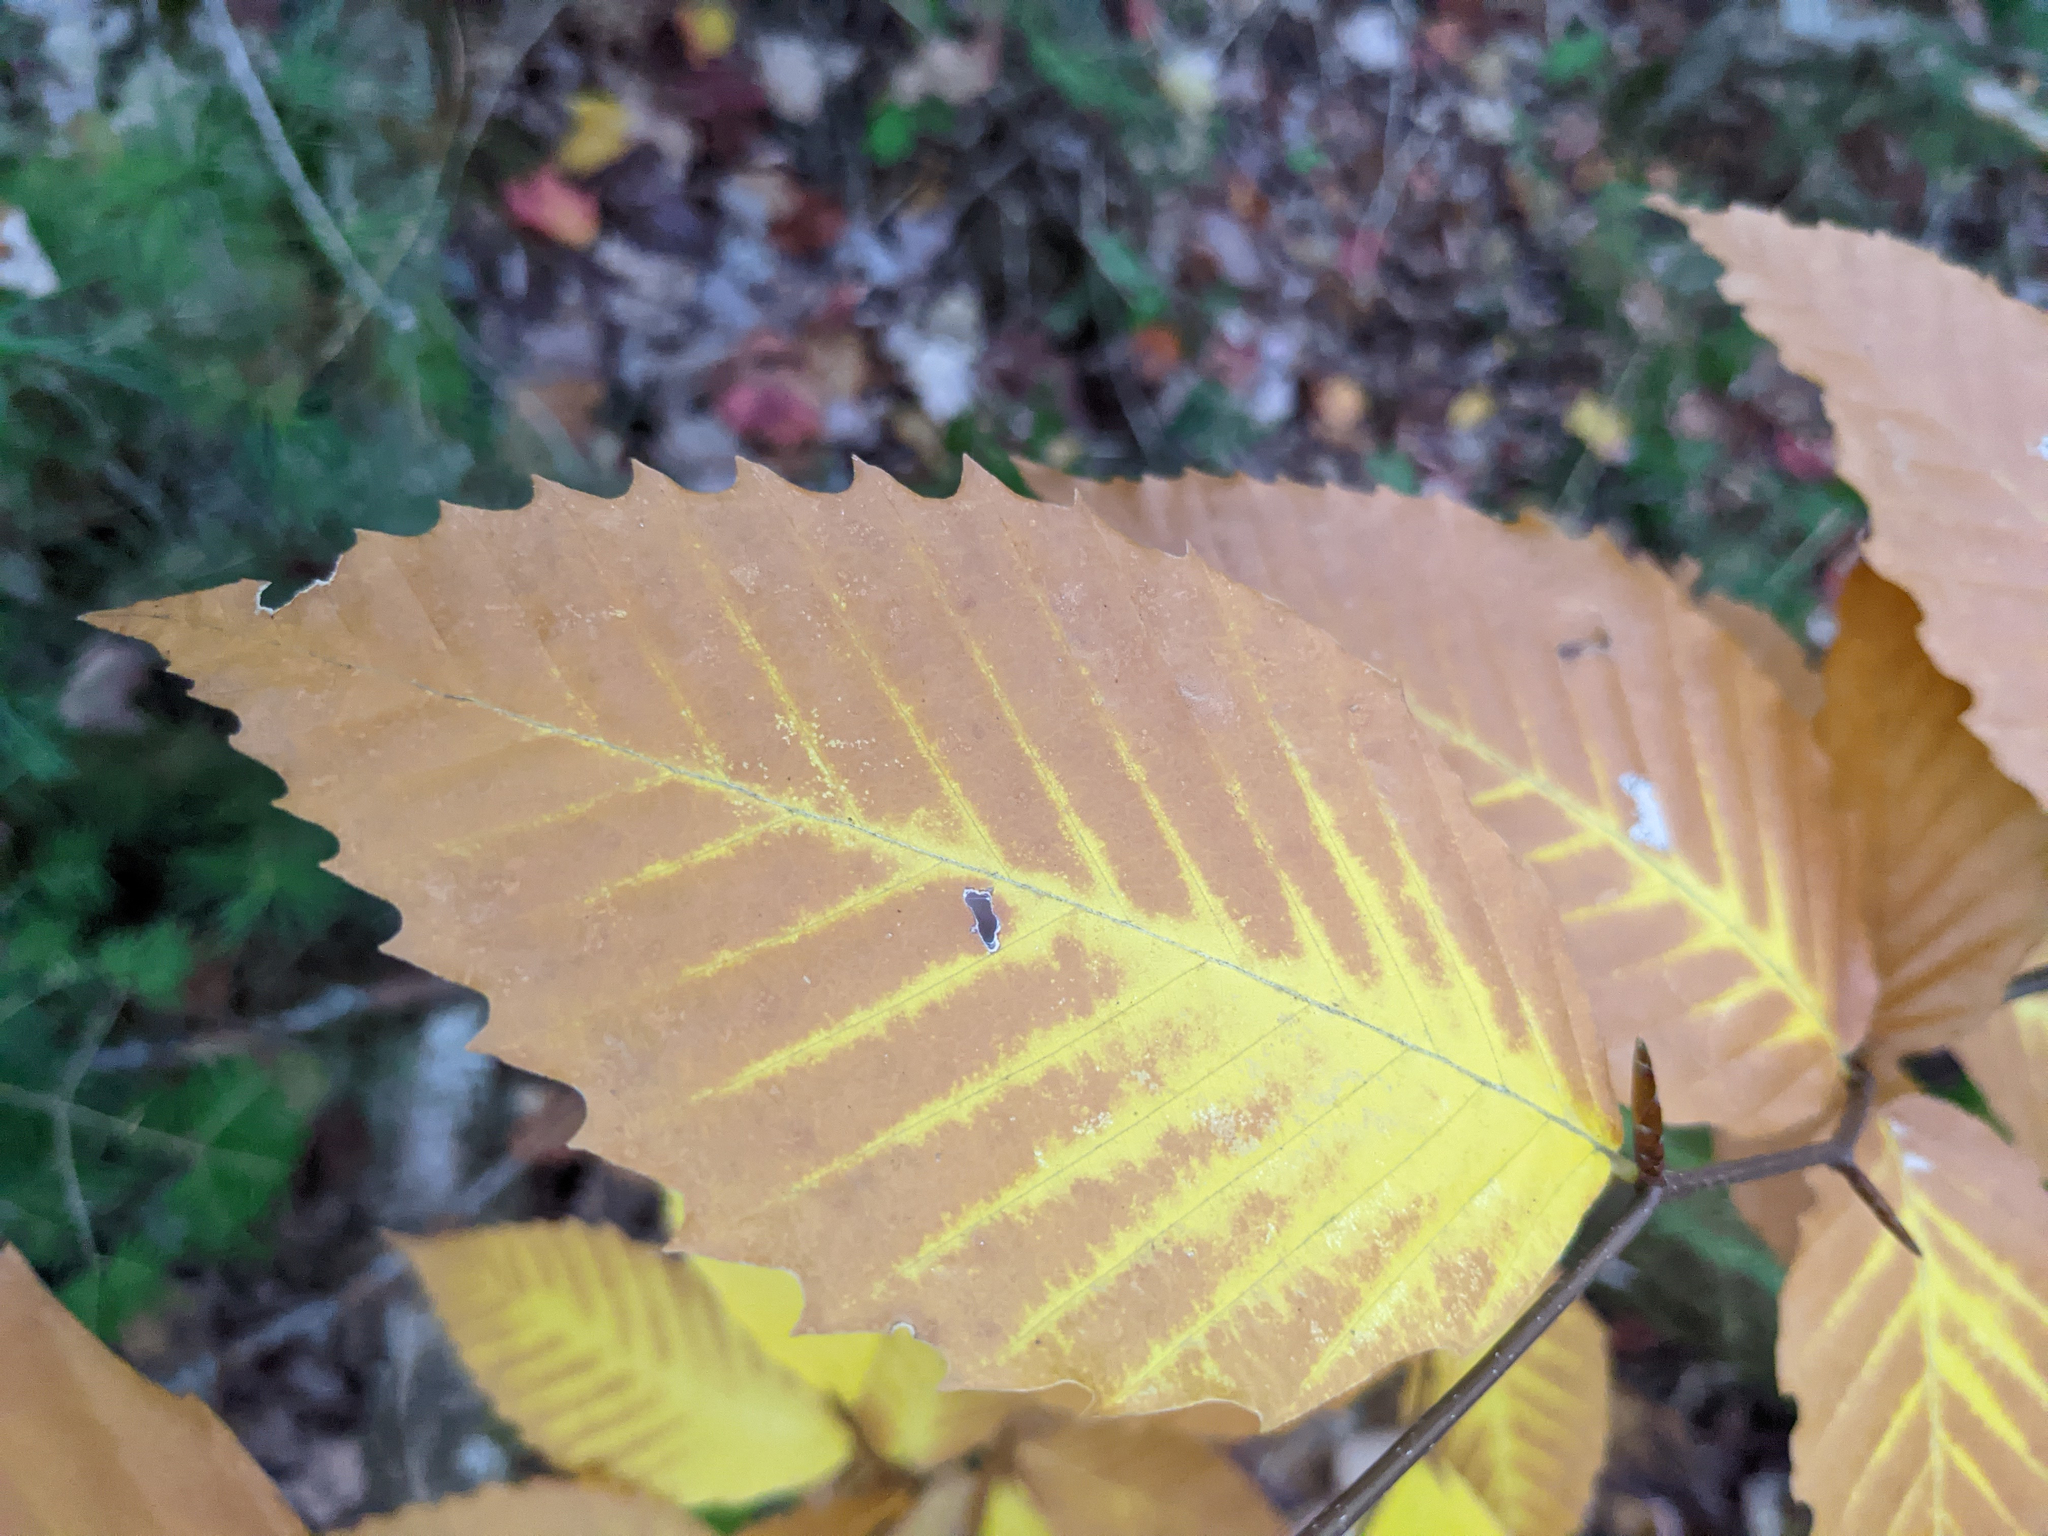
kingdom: Plantae
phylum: Tracheophyta
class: Magnoliopsida
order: Fagales
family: Fagaceae
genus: Fagus
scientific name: Fagus grandifolia
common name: American beech
